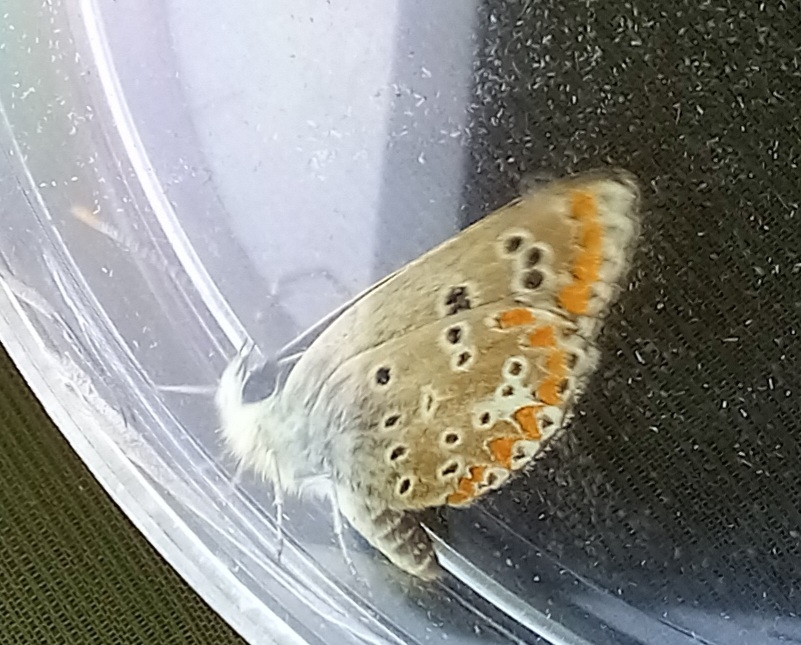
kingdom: Animalia
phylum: Arthropoda
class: Insecta
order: Lepidoptera
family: Lycaenidae
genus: Aricia
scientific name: Aricia cramera
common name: Eschscholtz´s brown  argus
